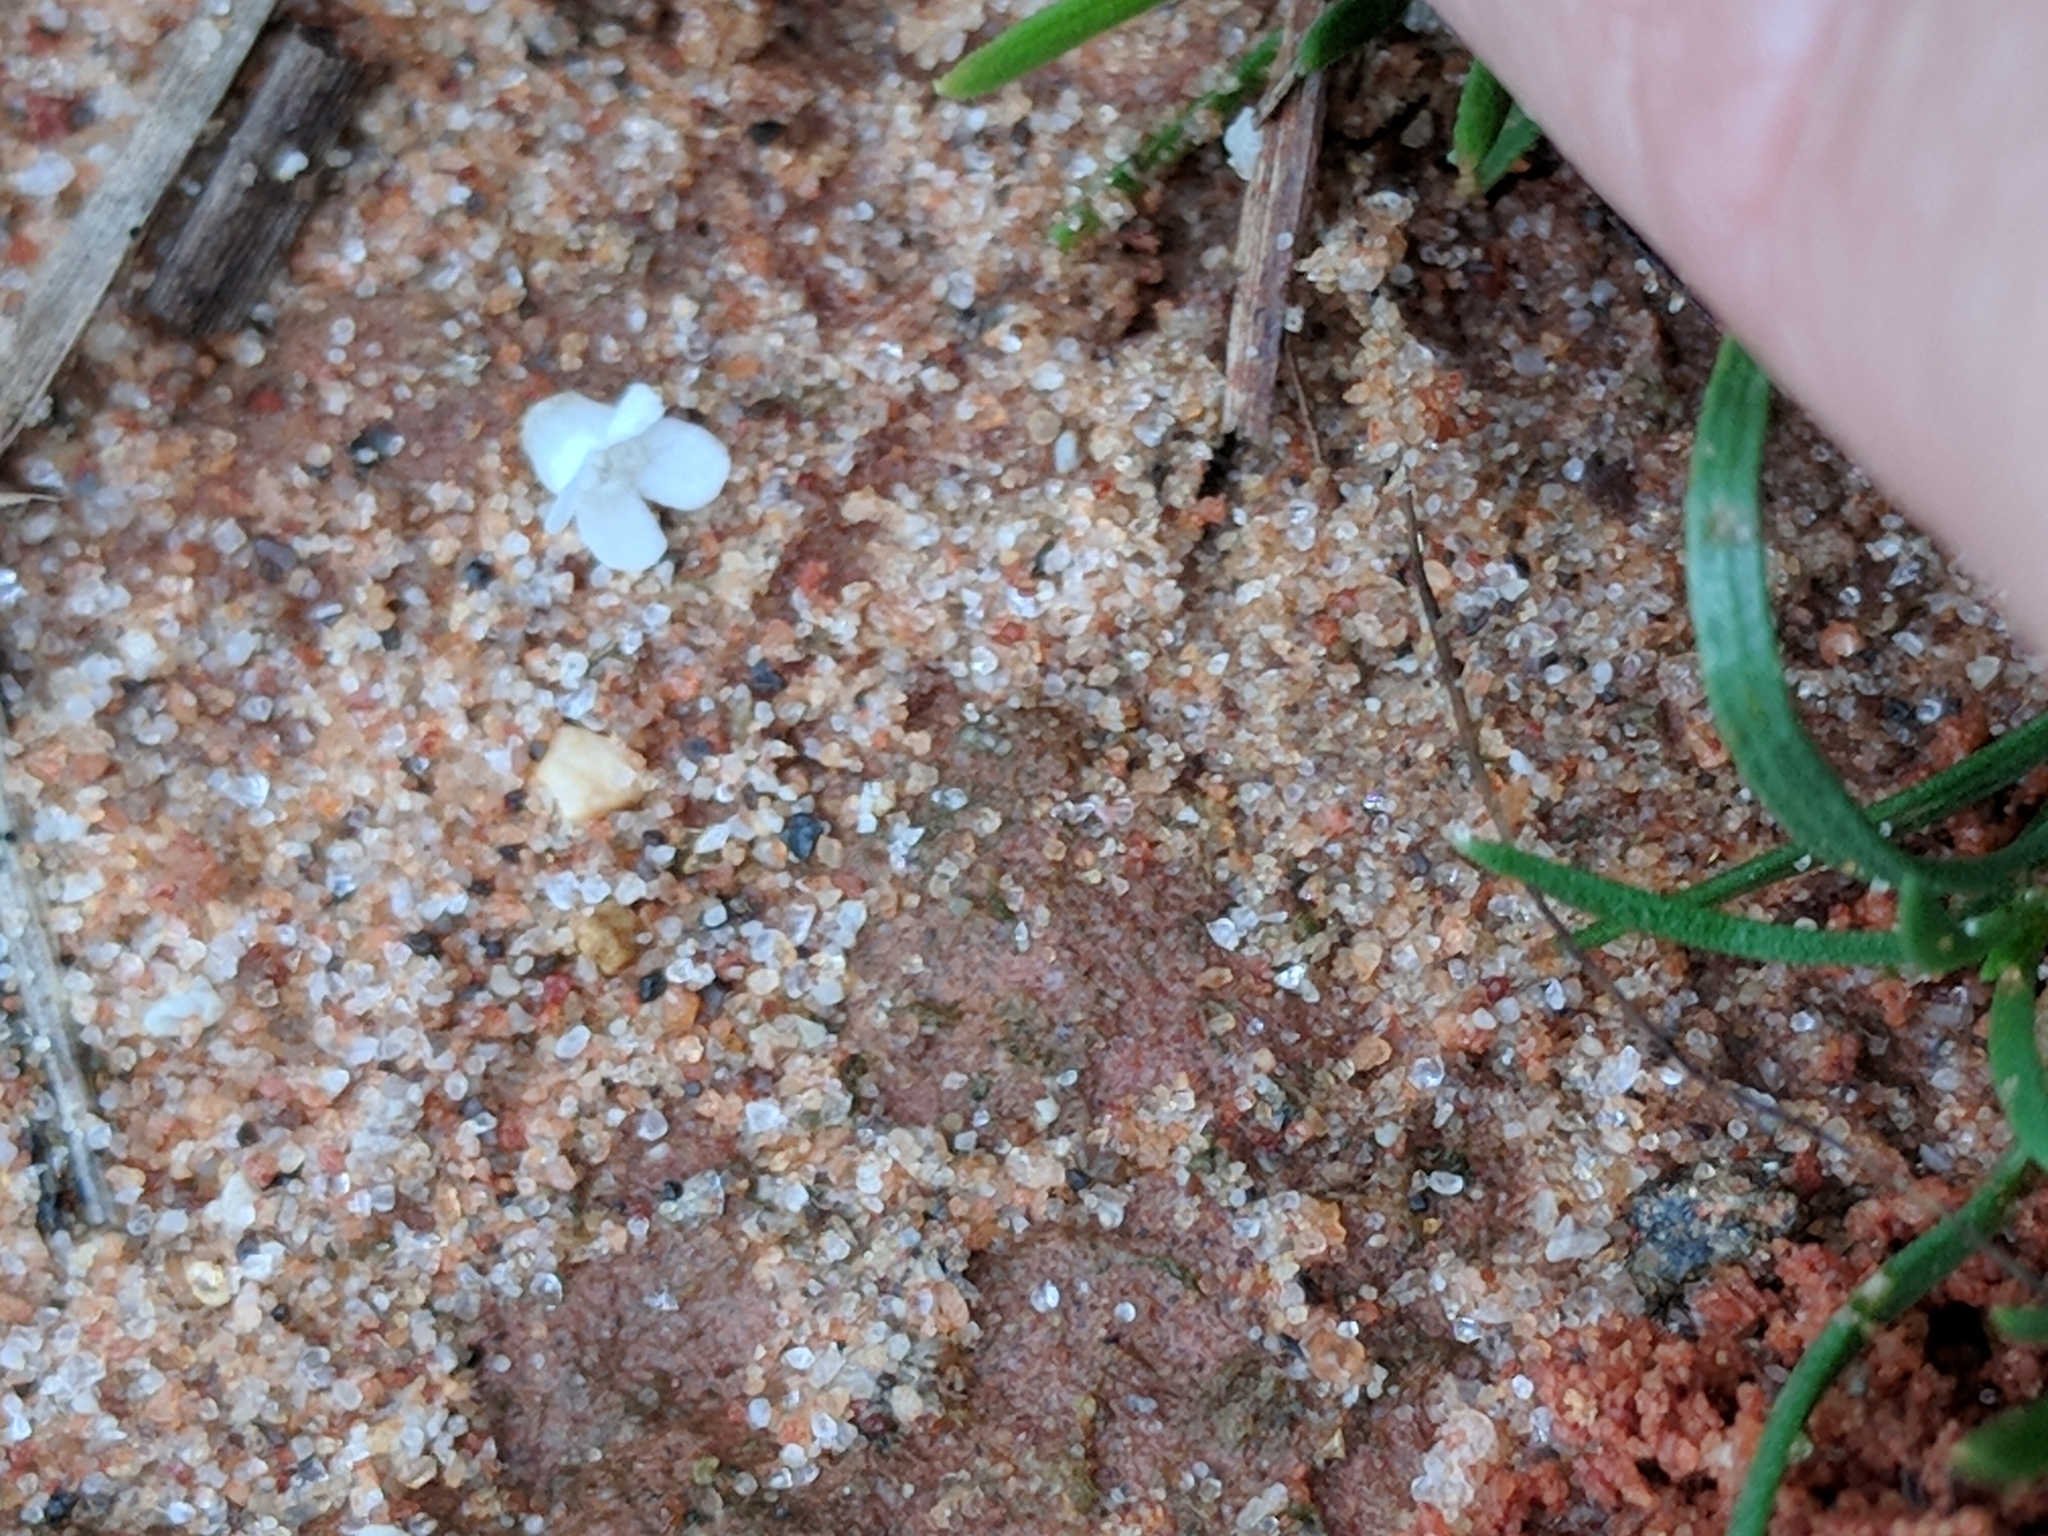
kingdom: Plantae
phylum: Tracheophyta
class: Magnoliopsida
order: Lamiales
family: Tetrachondraceae
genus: Polypremum
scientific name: Polypremum procumbens
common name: Juniper-leaf
